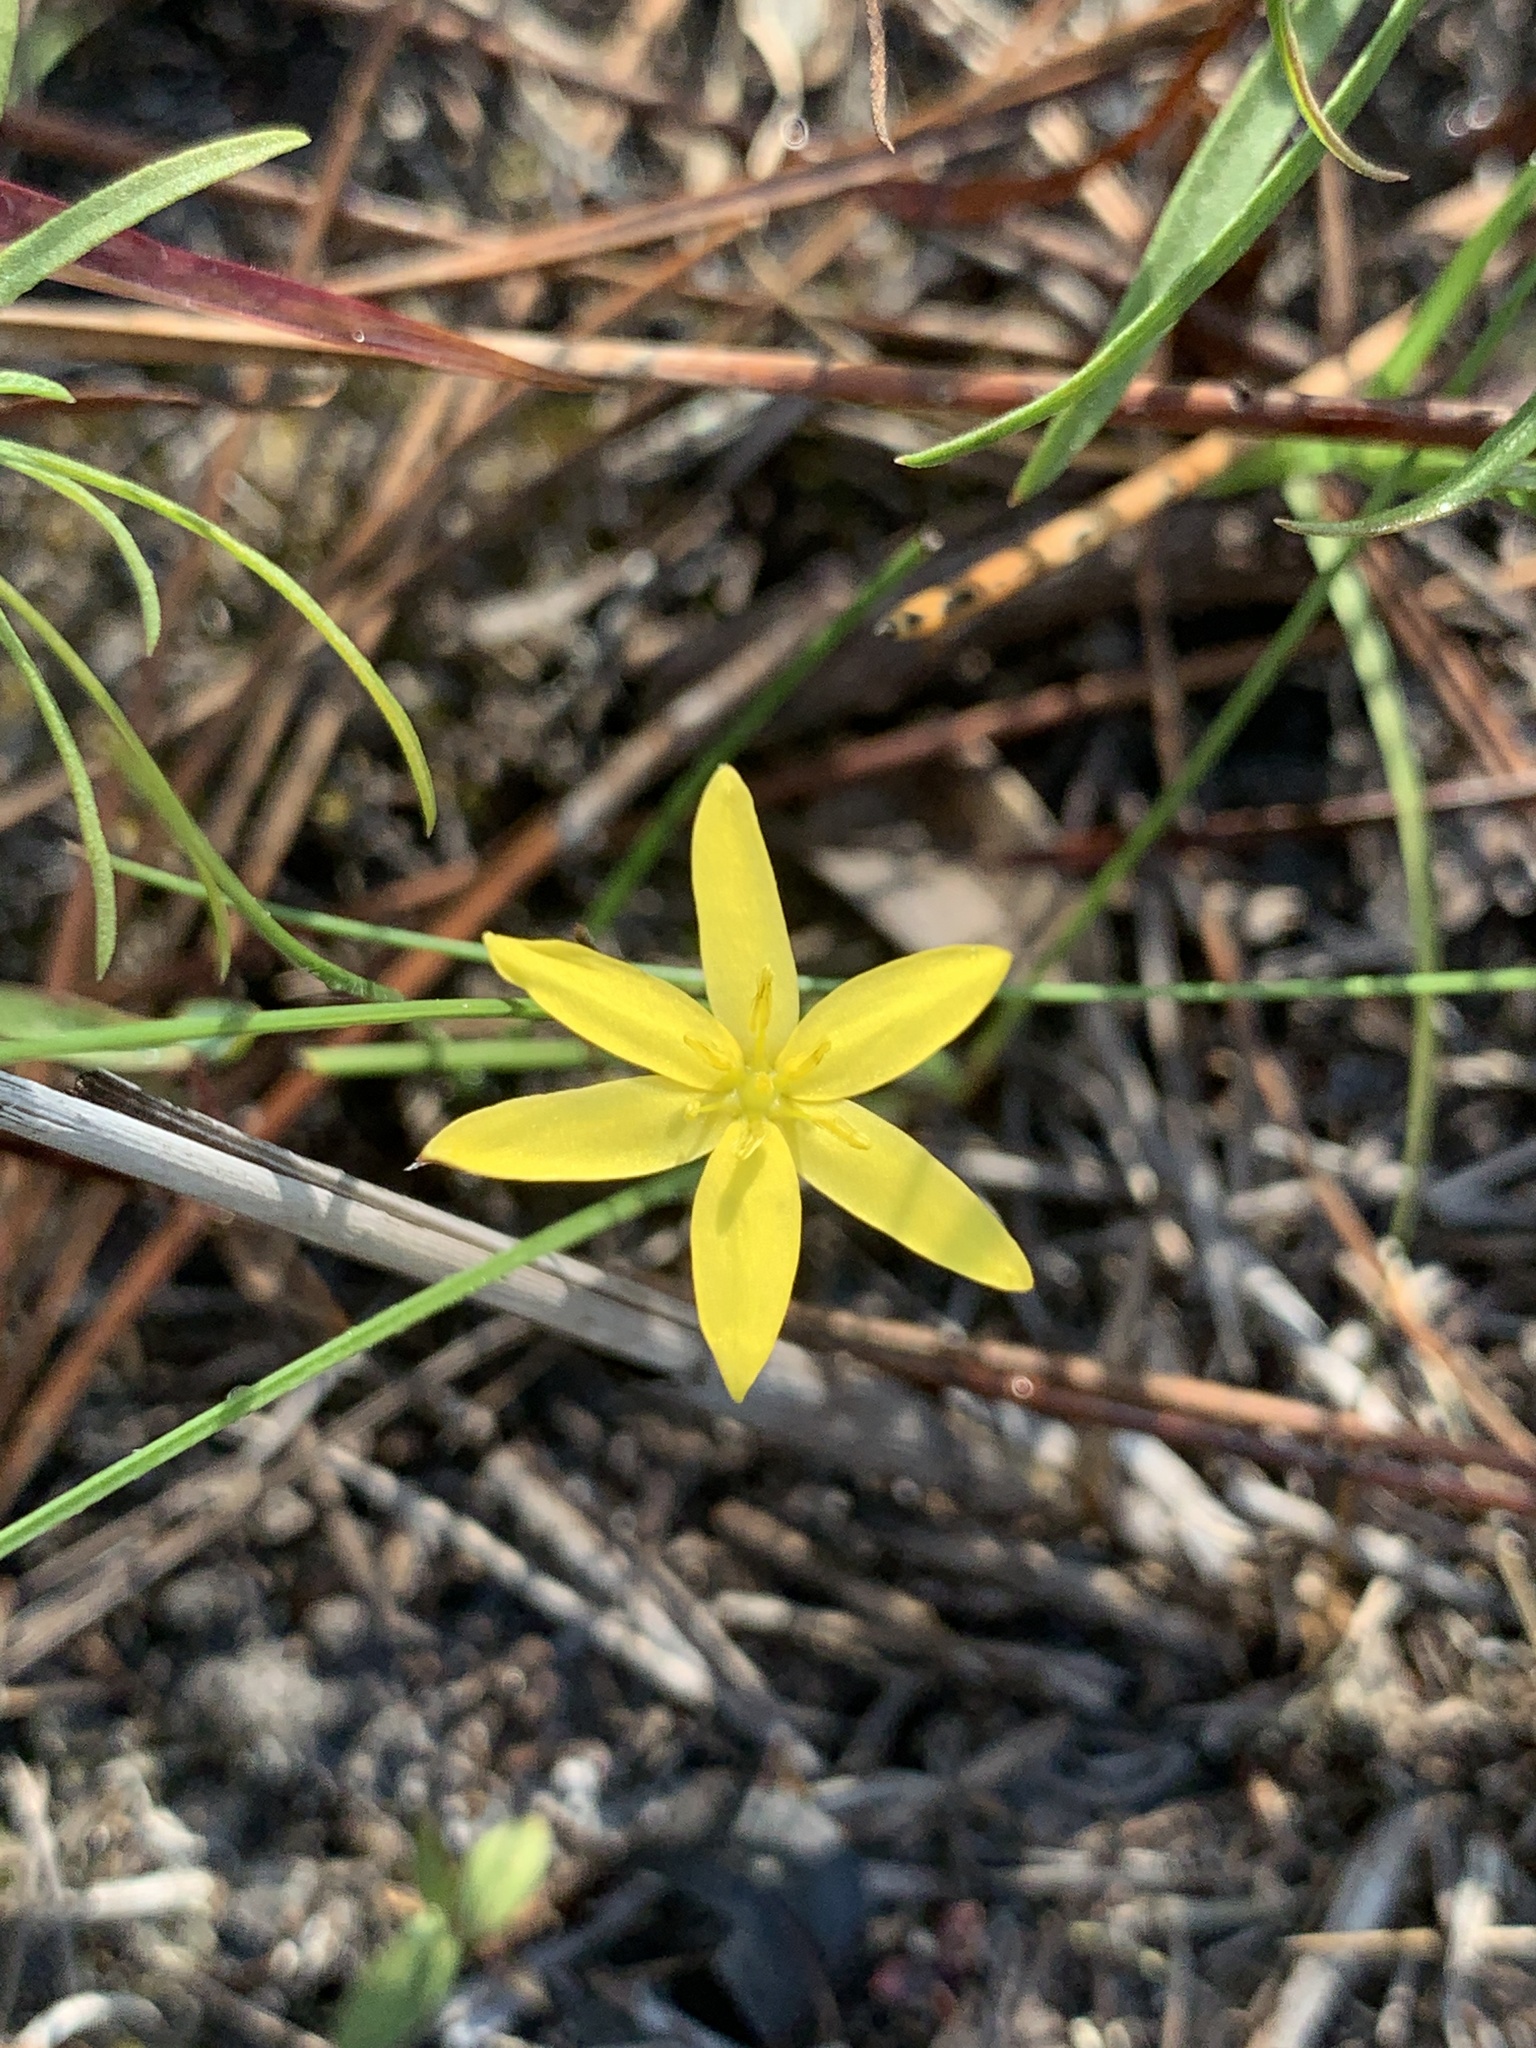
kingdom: Plantae
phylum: Tracheophyta
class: Liliopsida
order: Asparagales
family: Hypoxidaceae
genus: Hypoxis
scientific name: Hypoxis juncea
